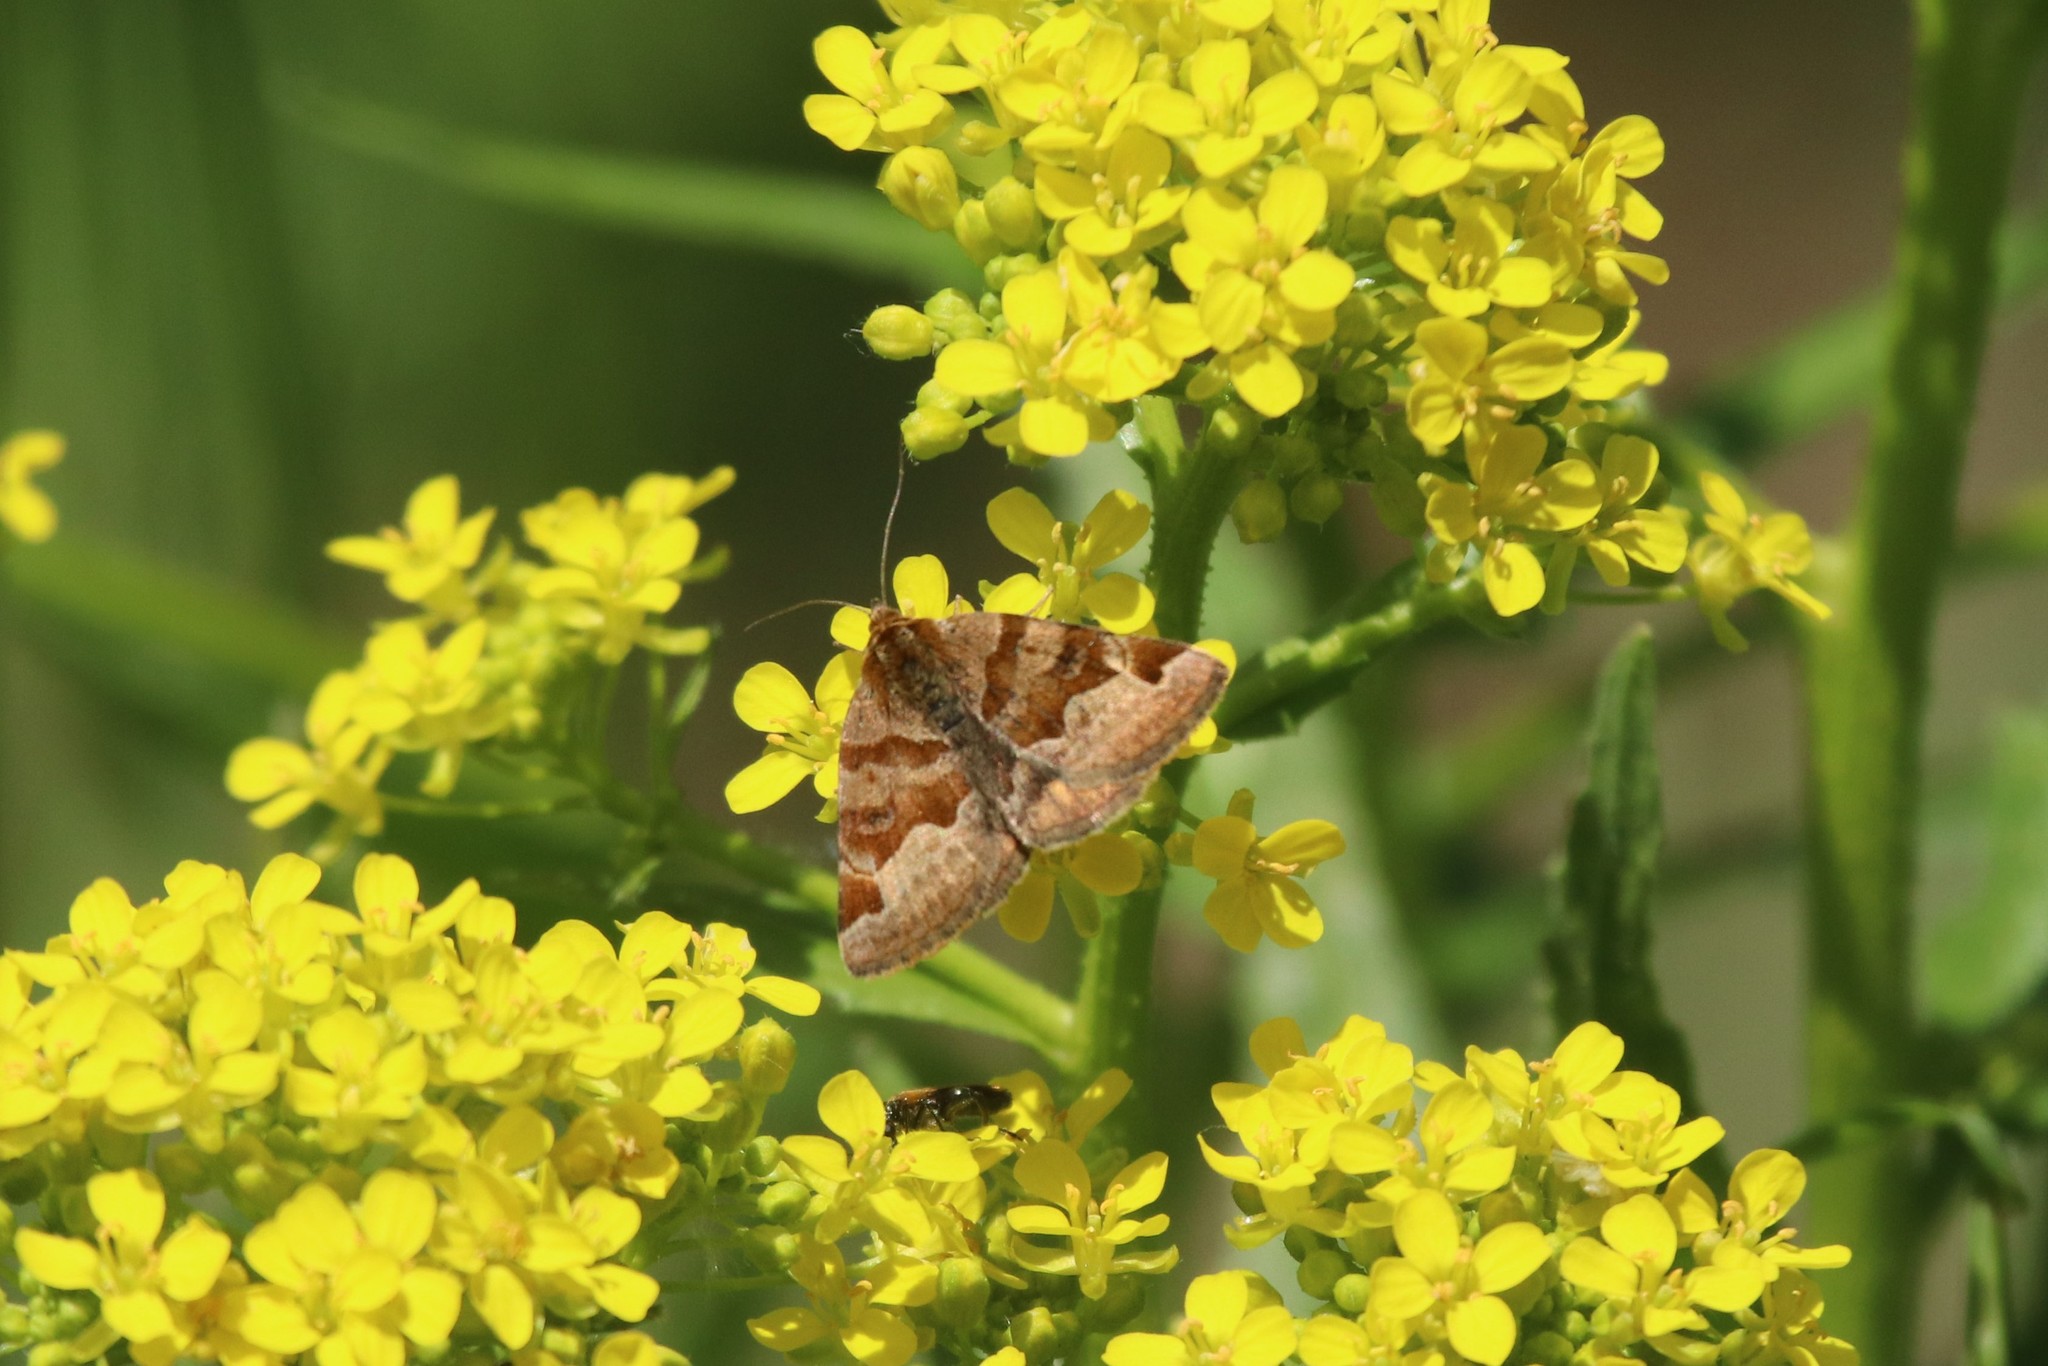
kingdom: Animalia
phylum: Arthropoda
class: Insecta
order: Lepidoptera
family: Erebidae
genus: Euclidia
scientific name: Euclidia glyphica
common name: Burnet companion
